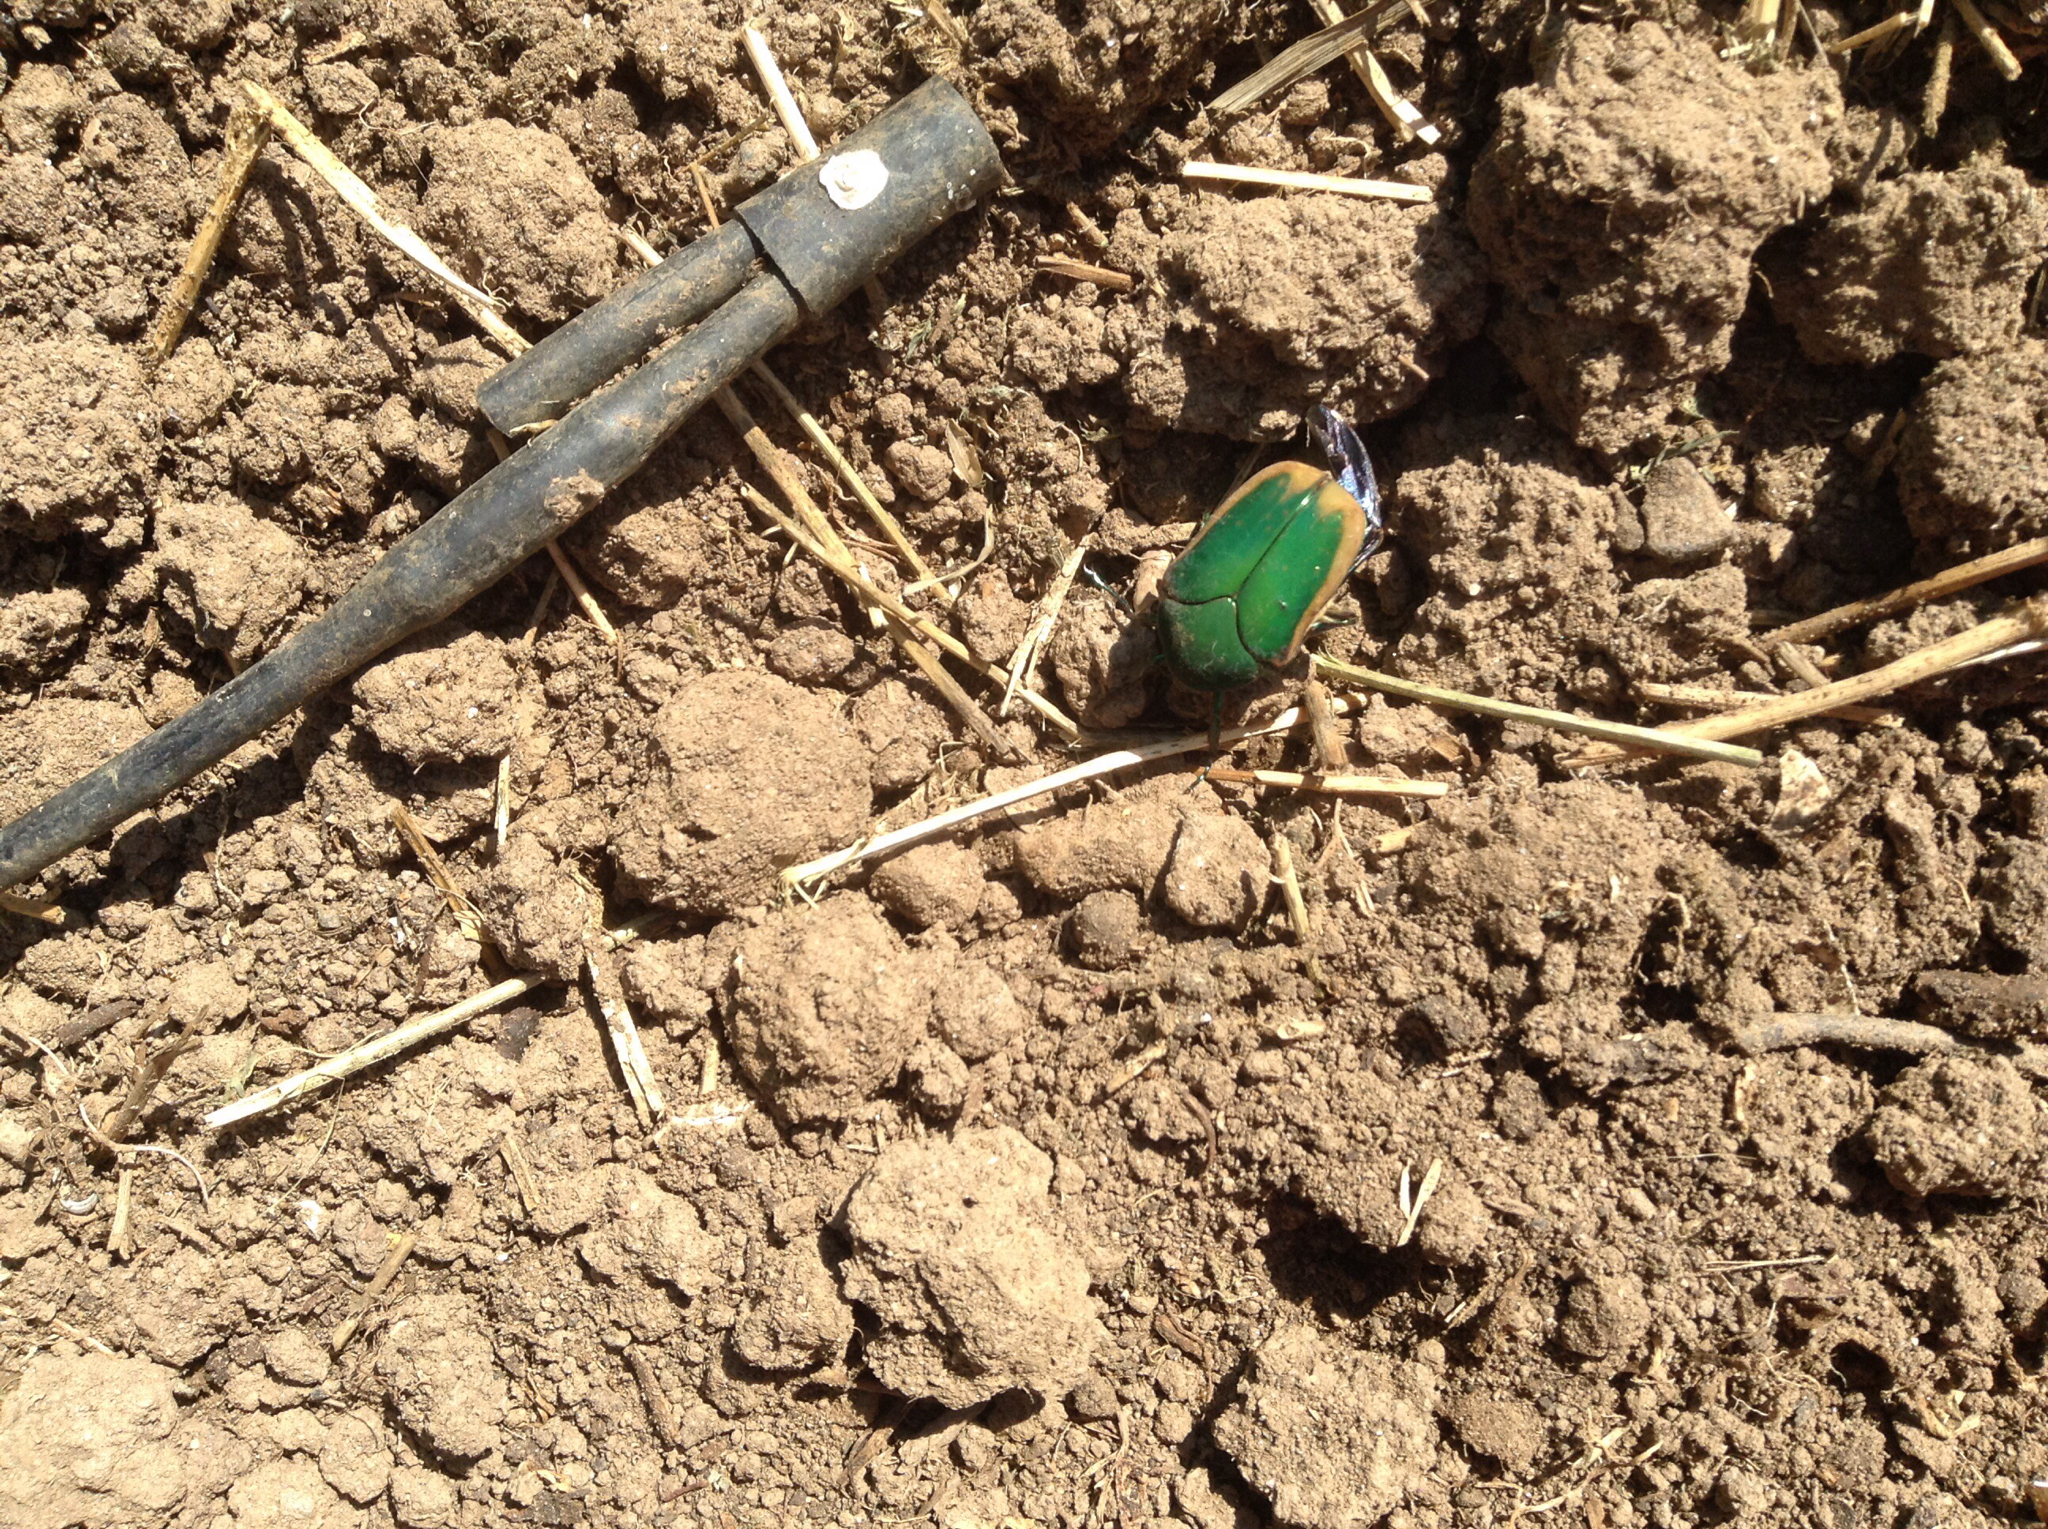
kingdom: Animalia
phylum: Arthropoda
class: Insecta
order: Coleoptera
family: Scarabaeidae
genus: Cotinis
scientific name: Cotinis mutabilis
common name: Figeater beetle
